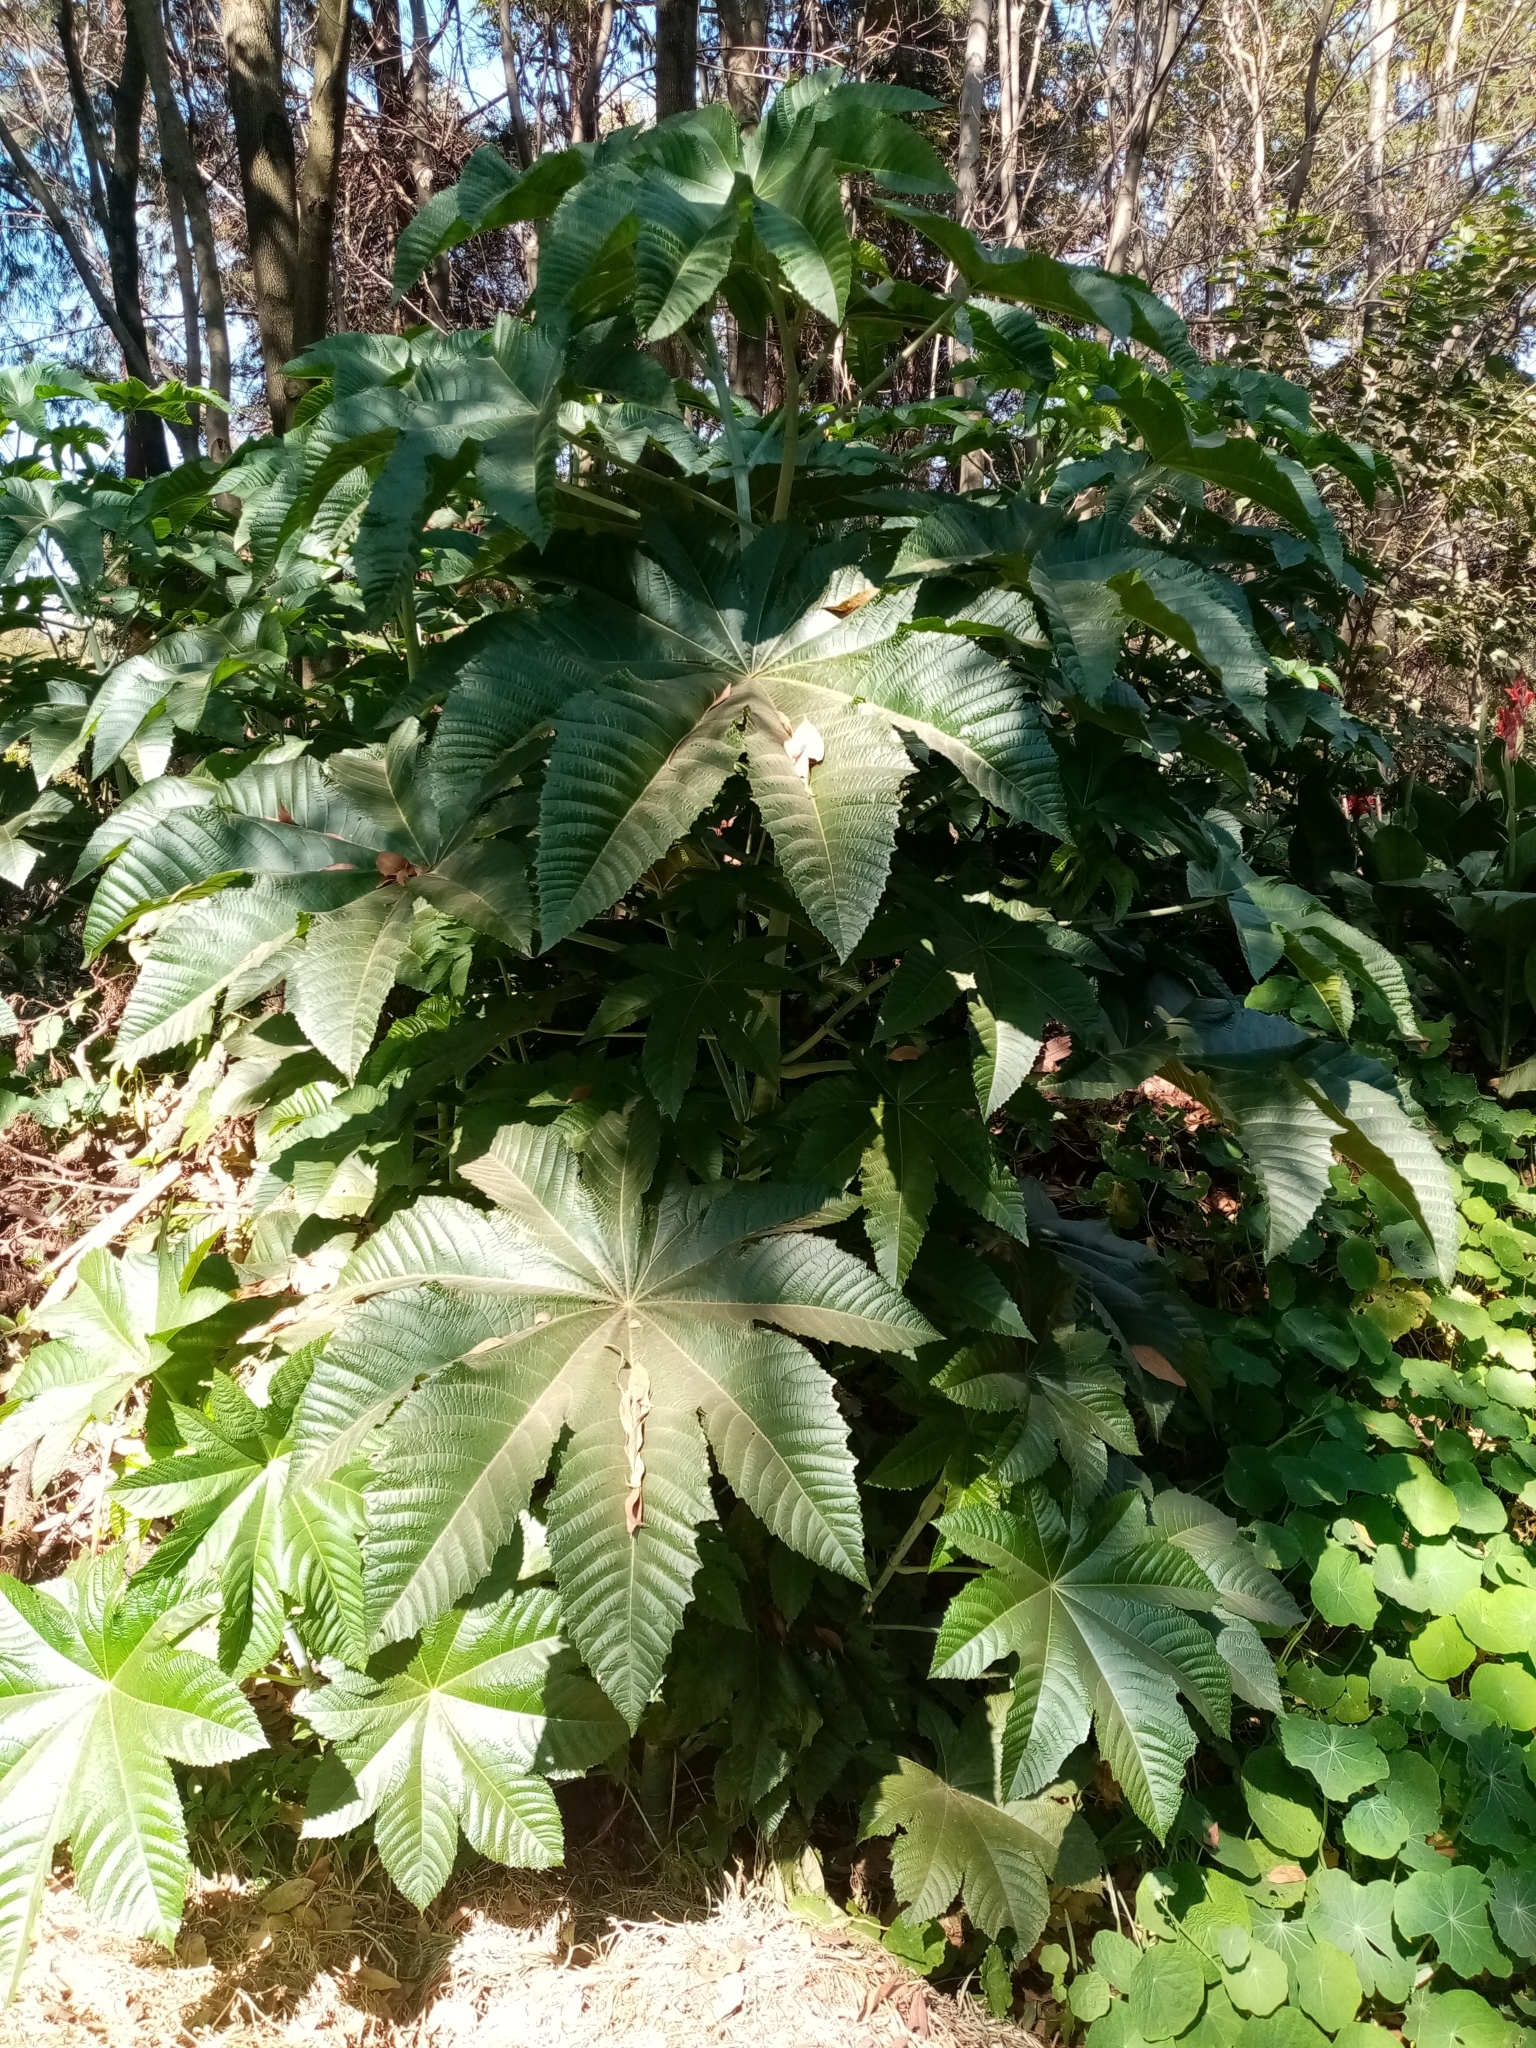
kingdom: Plantae
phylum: Tracheophyta
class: Magnoliopsida
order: Malpighiales
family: Euphorbiaceae
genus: Ricinus
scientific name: Ricinus communis
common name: Castor-oil-plant
